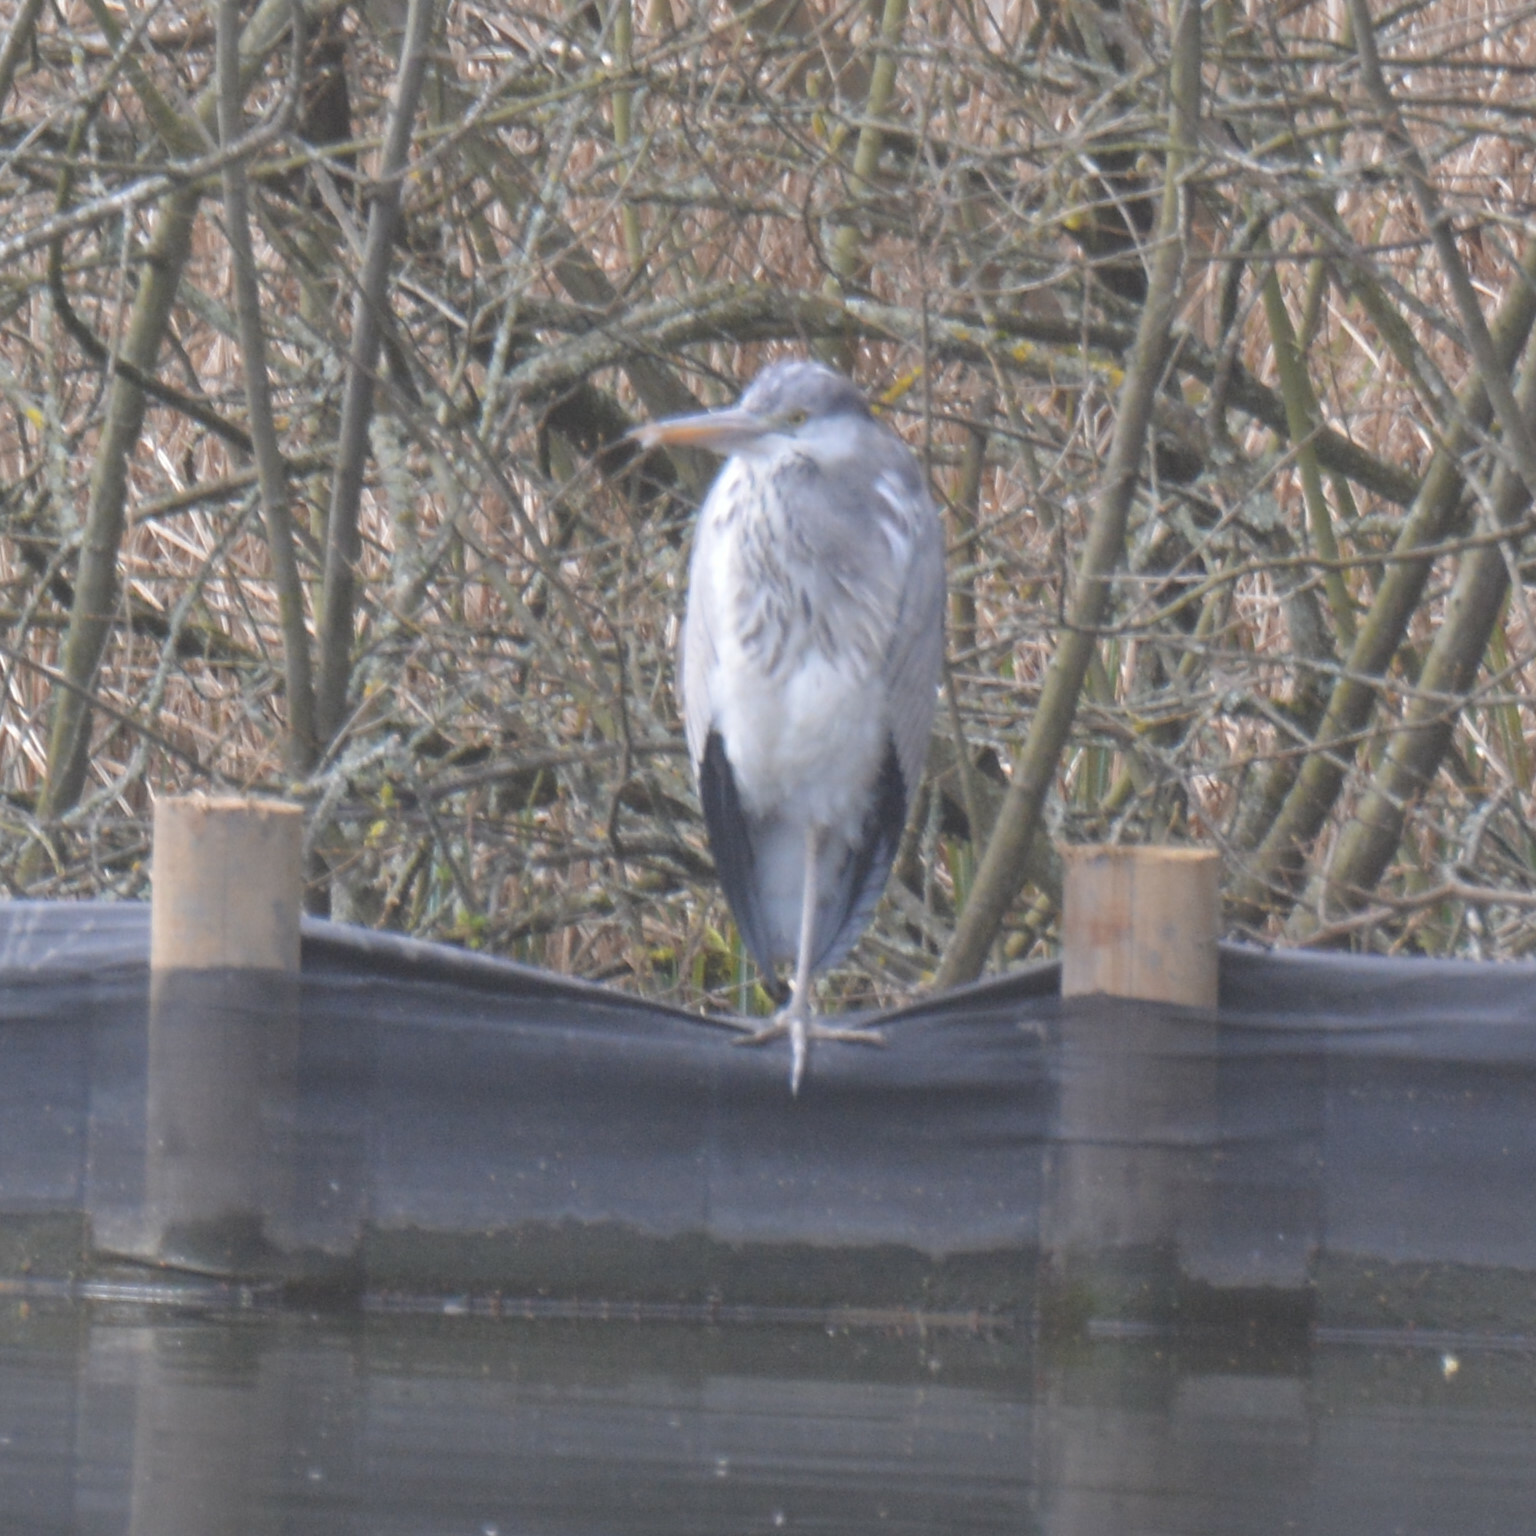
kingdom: Animalia
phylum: Chordata
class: Aves
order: Pelecaniformes
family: Ardeidae
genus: Ardea
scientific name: Ardea cinerea
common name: Grey heron
